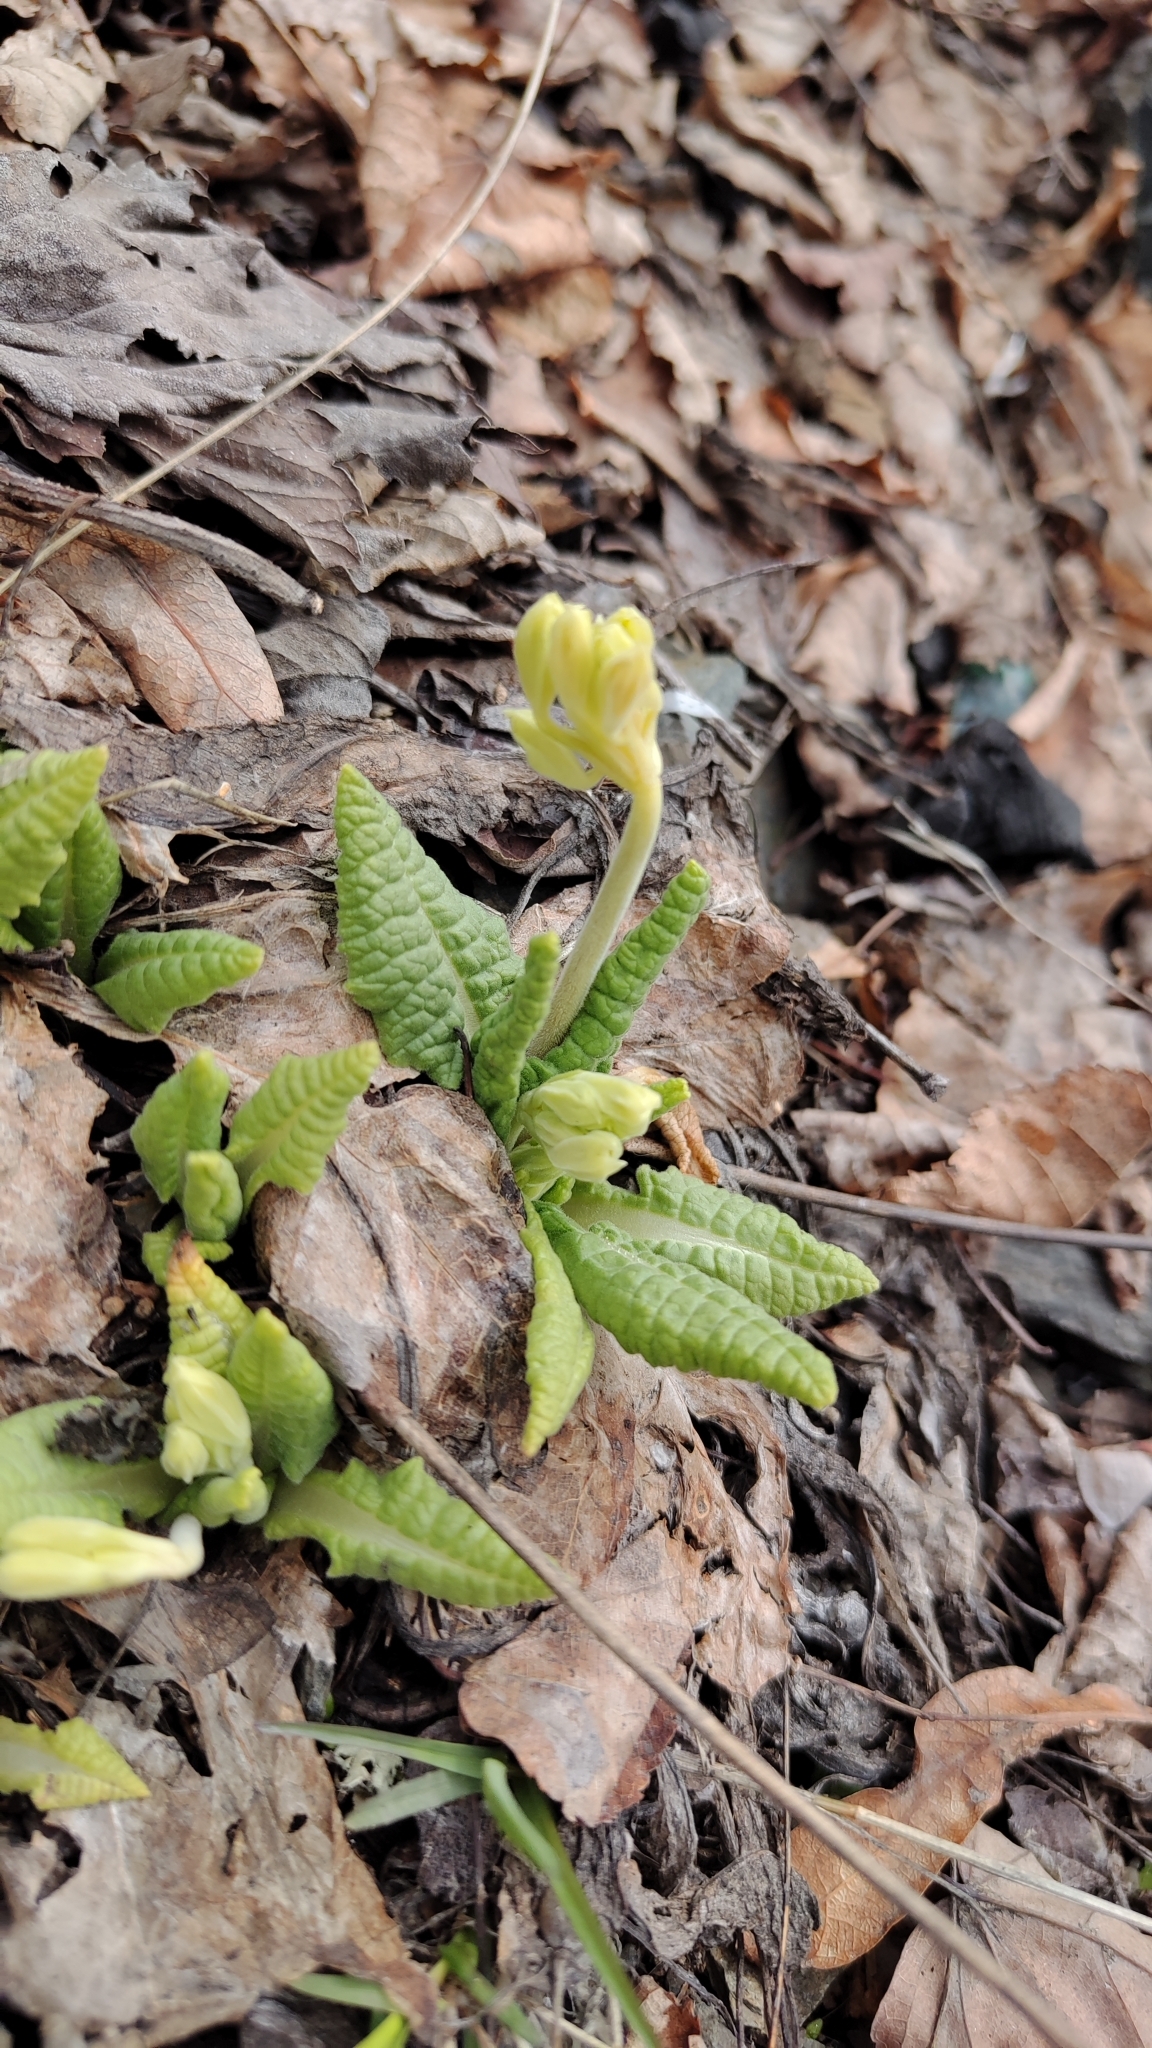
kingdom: Plantae
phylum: Tracheophyta
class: Magnoliopsida
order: Ericales
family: Primulaceae
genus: Primula
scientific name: Primula veris
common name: Cowslip
